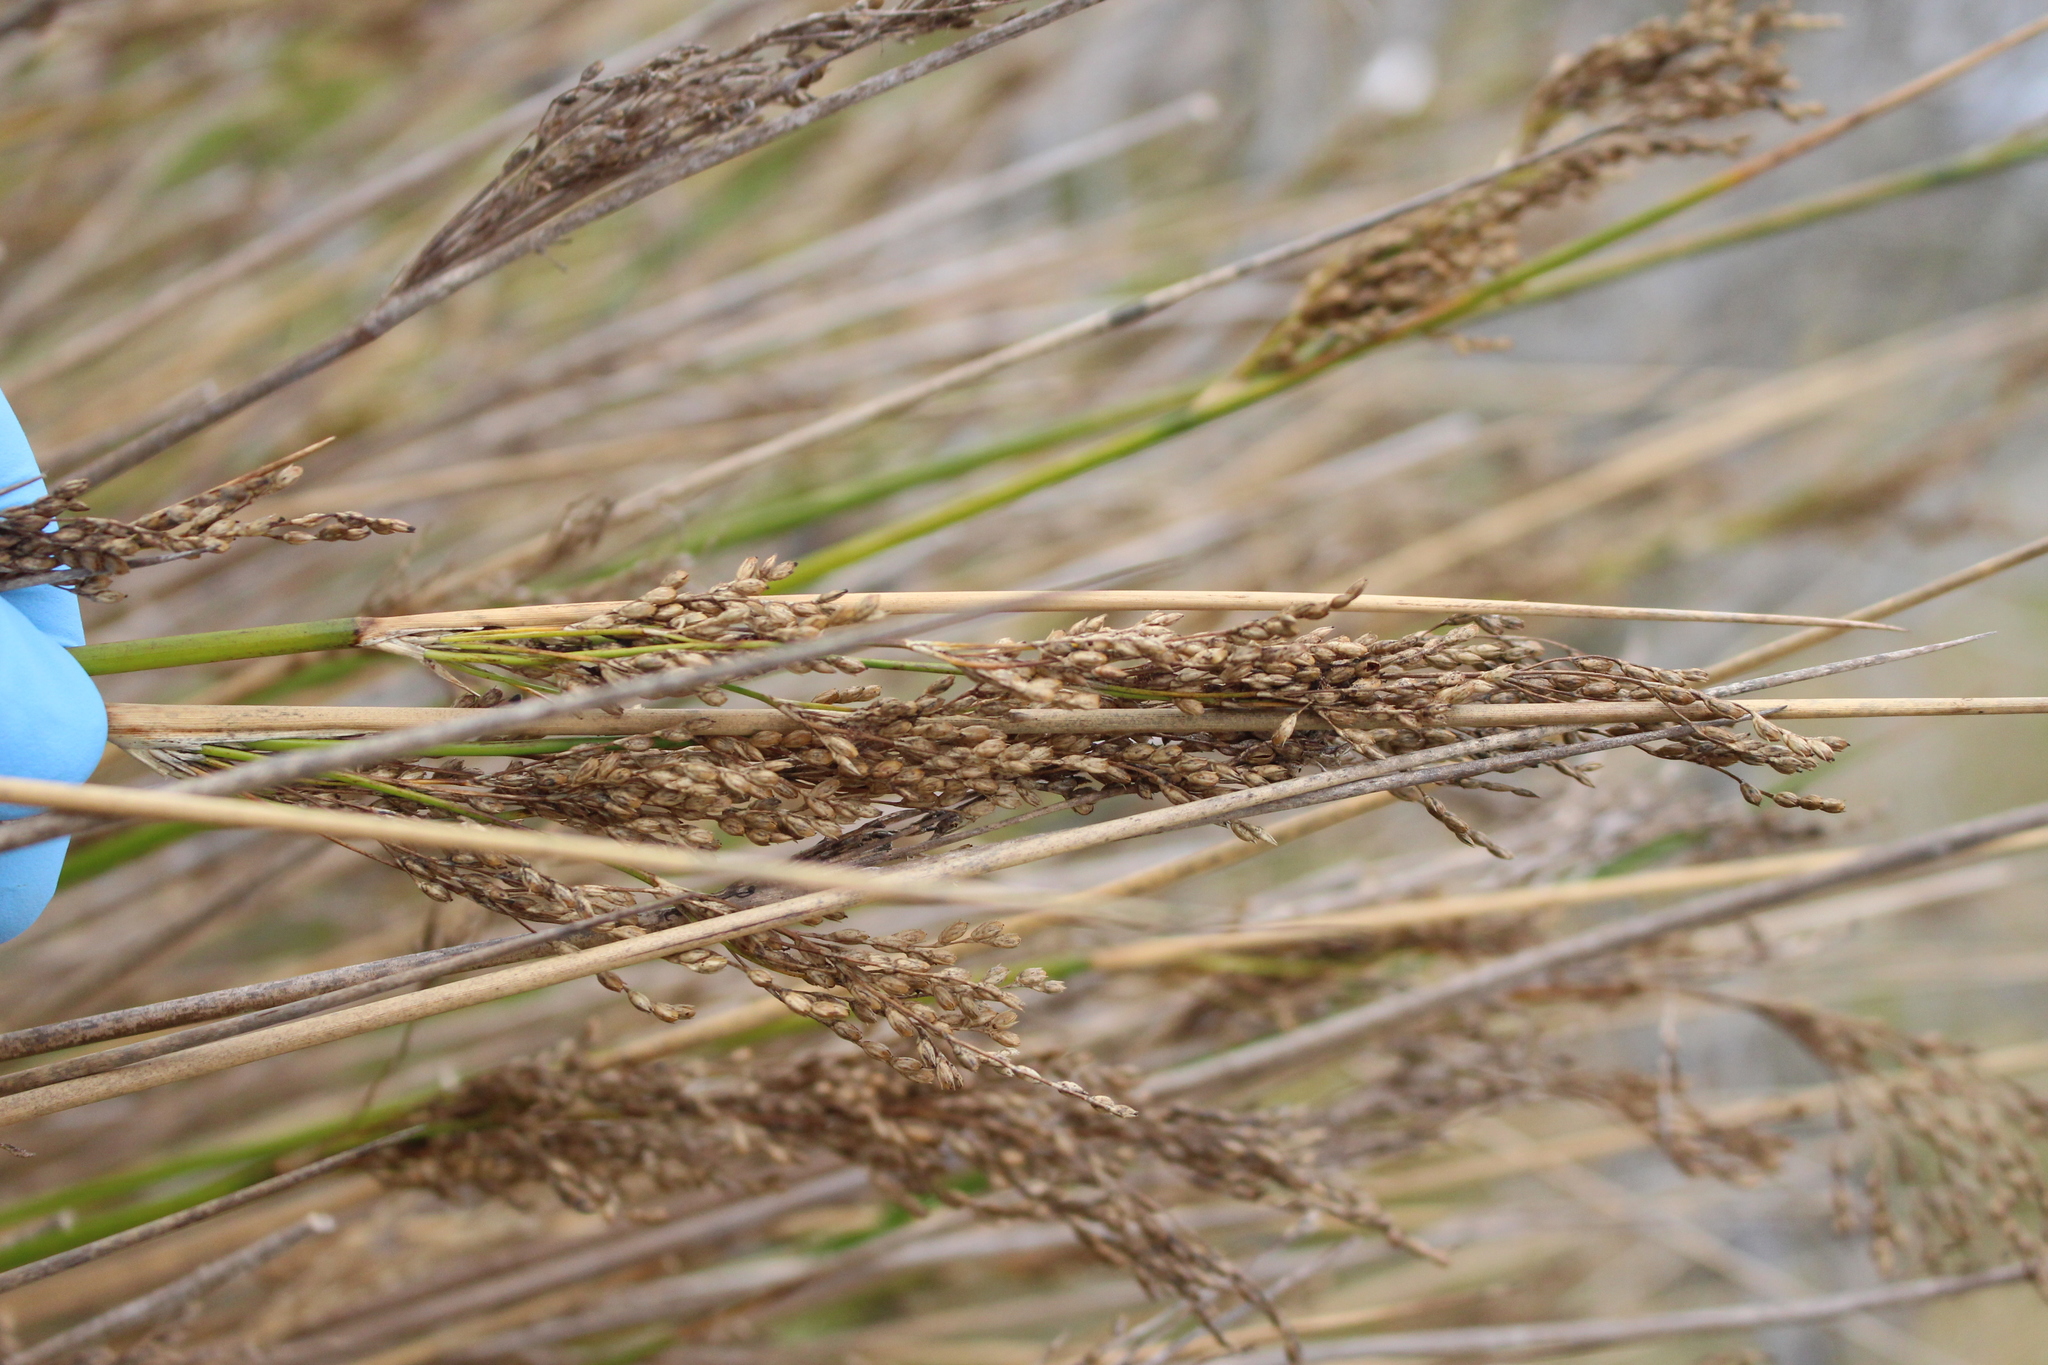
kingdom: Plantae
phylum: Tracheophyta
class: Liliopsida
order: Poales
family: Juncaceae
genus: Juncus
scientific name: Juncus pallidus
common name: Great soft-rush
